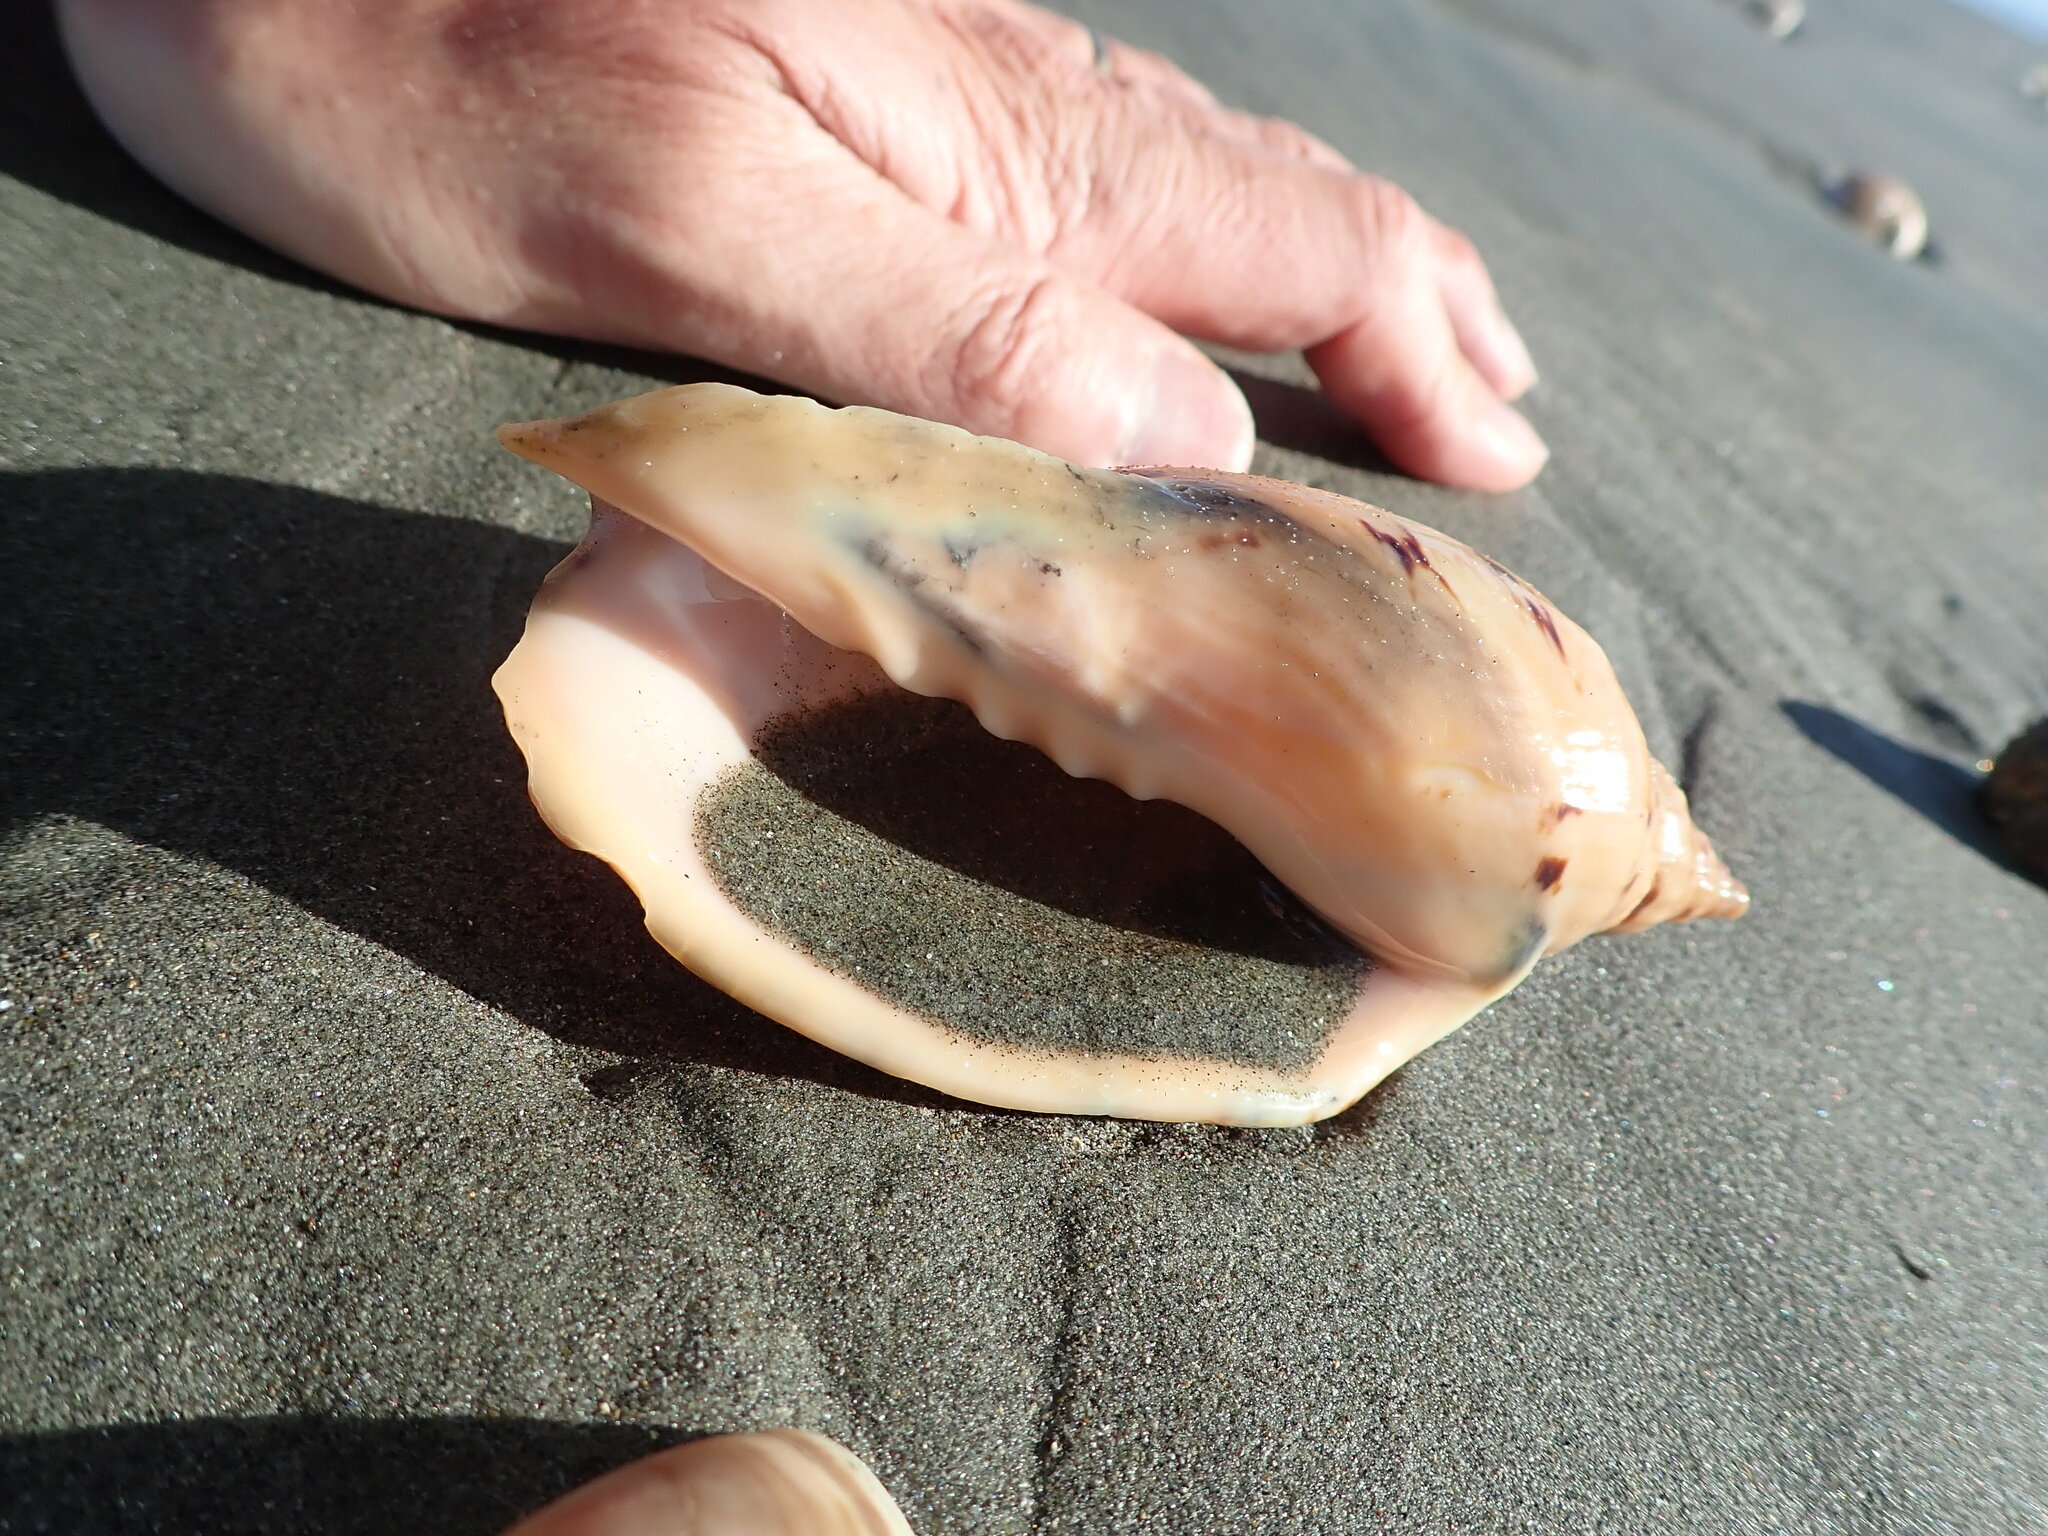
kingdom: Animalia
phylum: Mollusca
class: Gastropoda
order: Neogastropoda
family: Volutidae
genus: Alcithoe
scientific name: Alcithoe arabica
